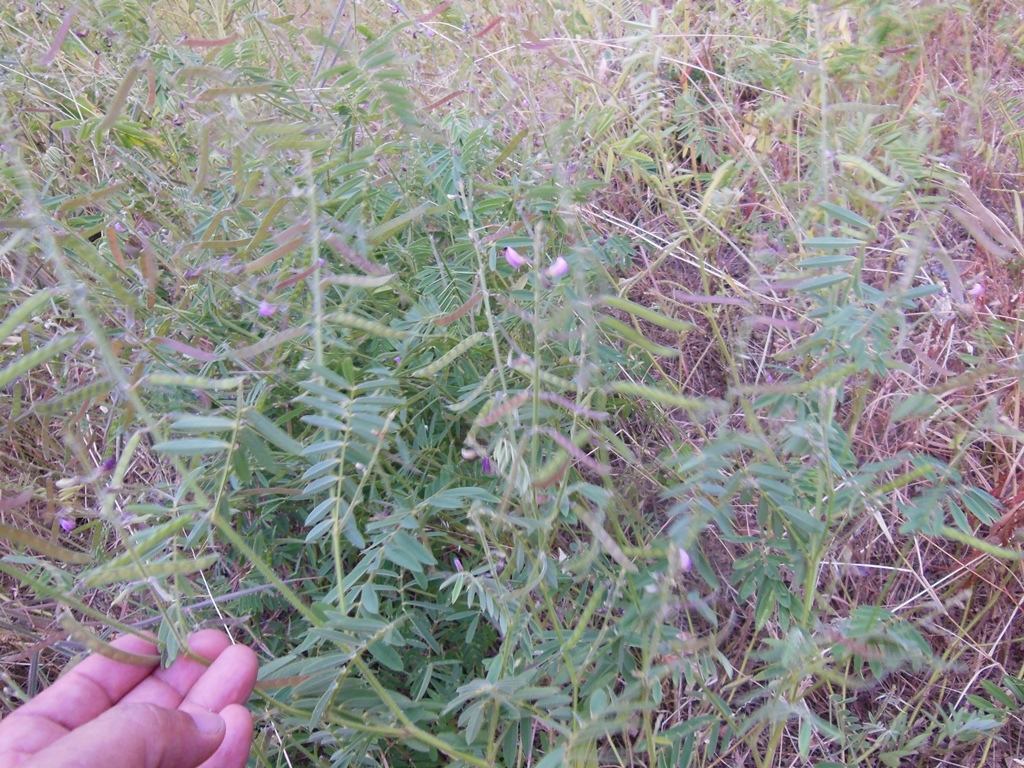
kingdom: Plantae
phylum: Tracheophyta
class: Magnoliopsida
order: Fabales
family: Fabaceae
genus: Tephrosia
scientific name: Tephrosia rhodantha
